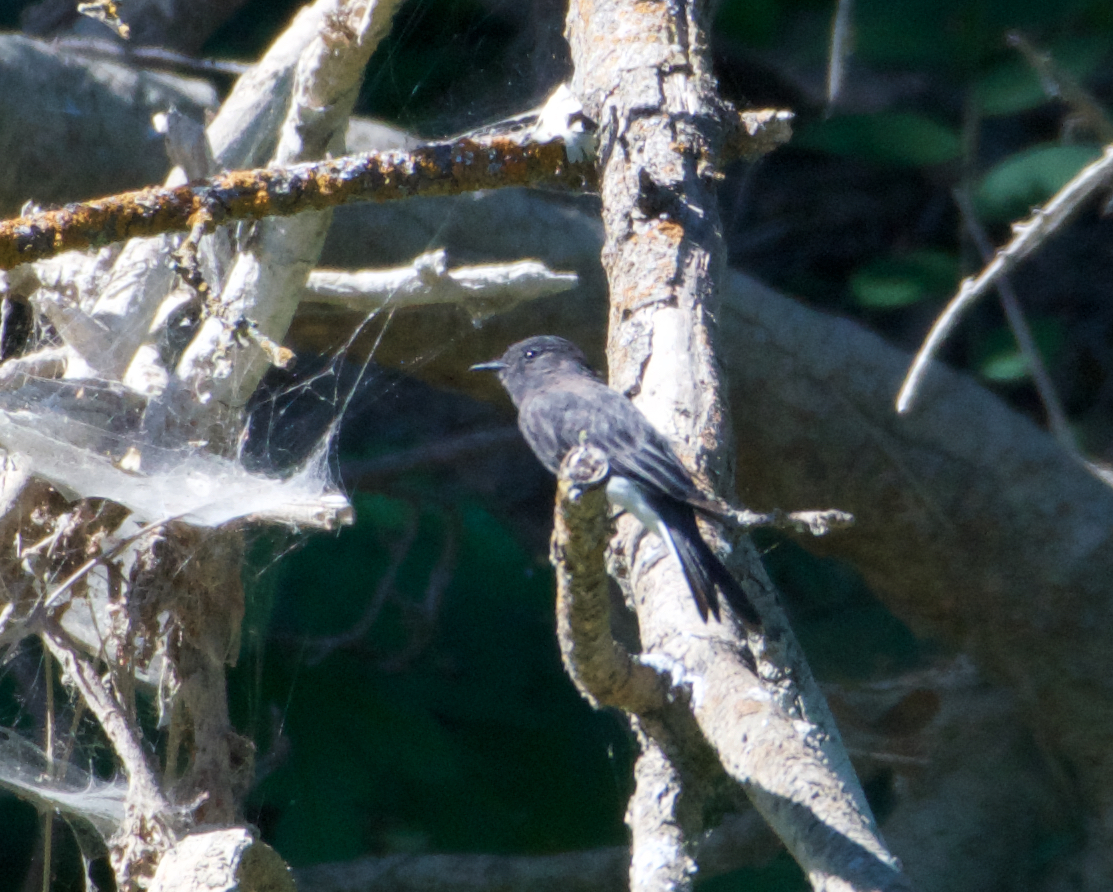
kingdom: Animalia
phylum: Chordata
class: Aves
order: Passeriformes
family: Tyrannidae
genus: Sayornis
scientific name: Sayornis nigricans
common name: Black phoebe
